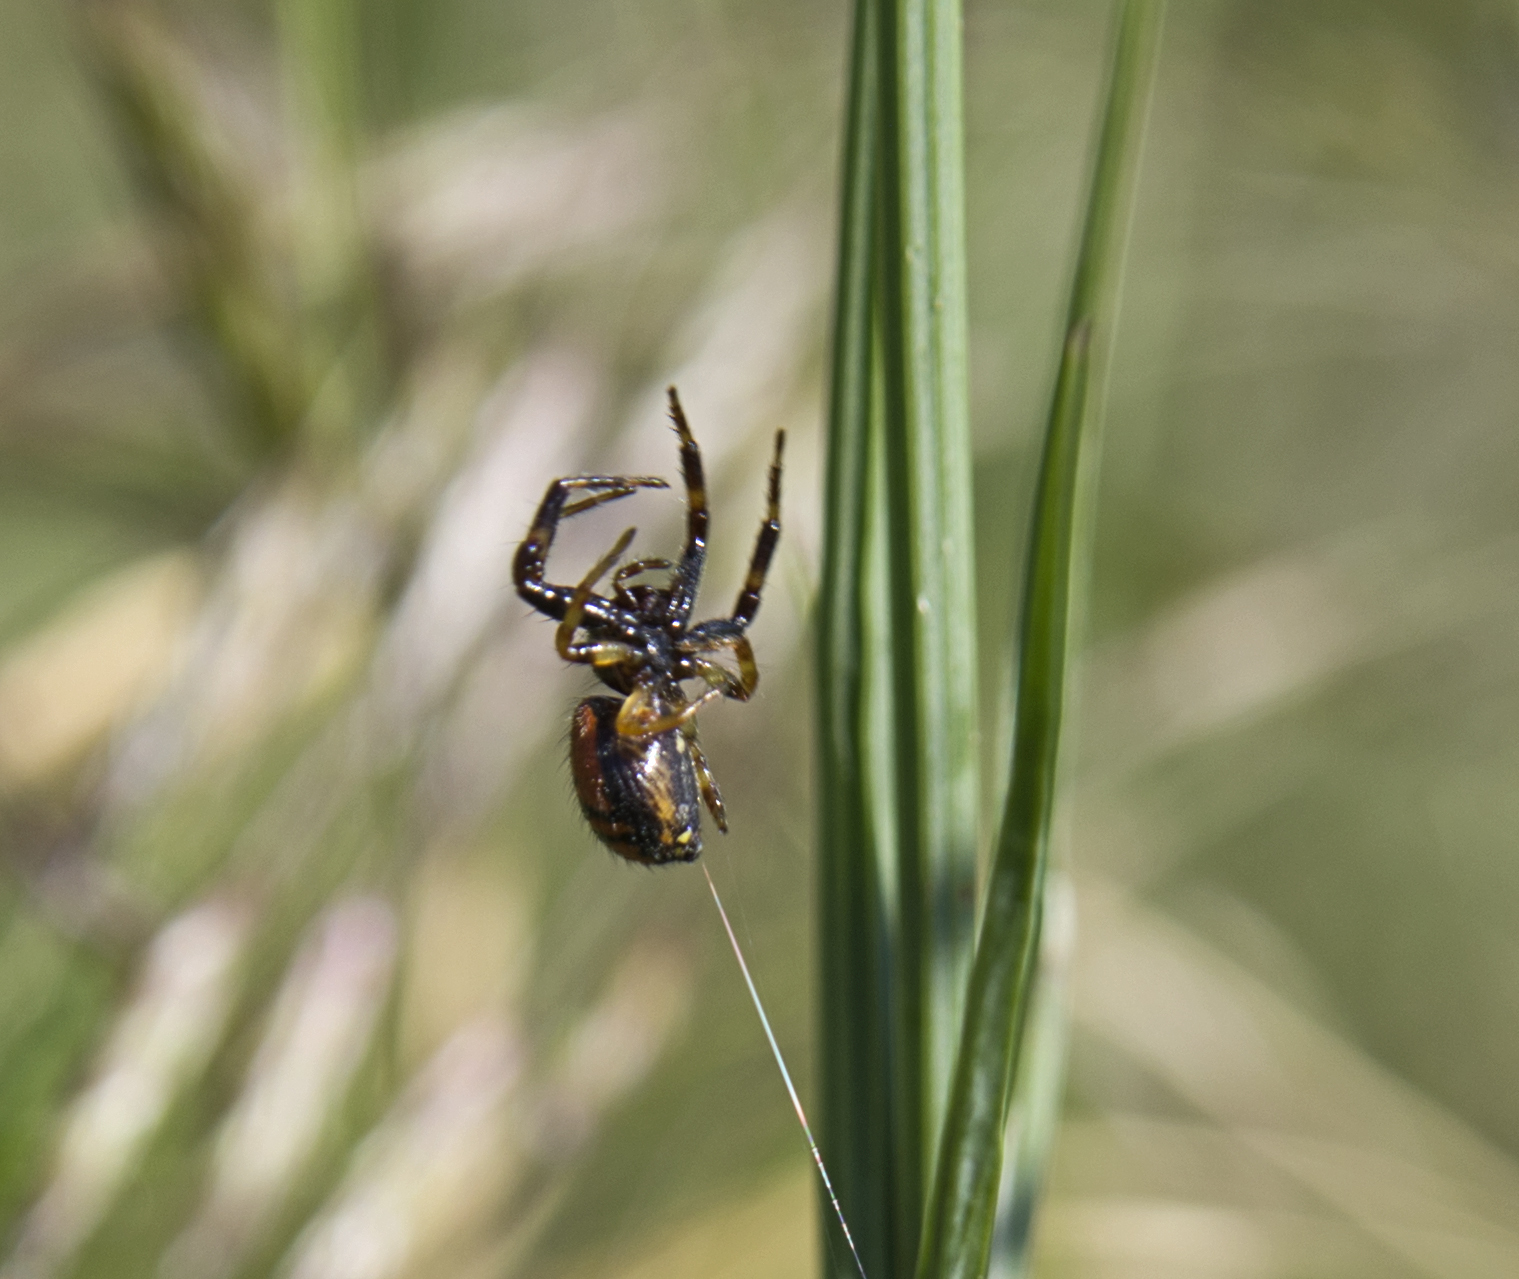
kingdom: Animalia
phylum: Arthropoda
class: Arachnida
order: Araneae
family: Thomisidae
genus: Synema
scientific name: Synema globosum
